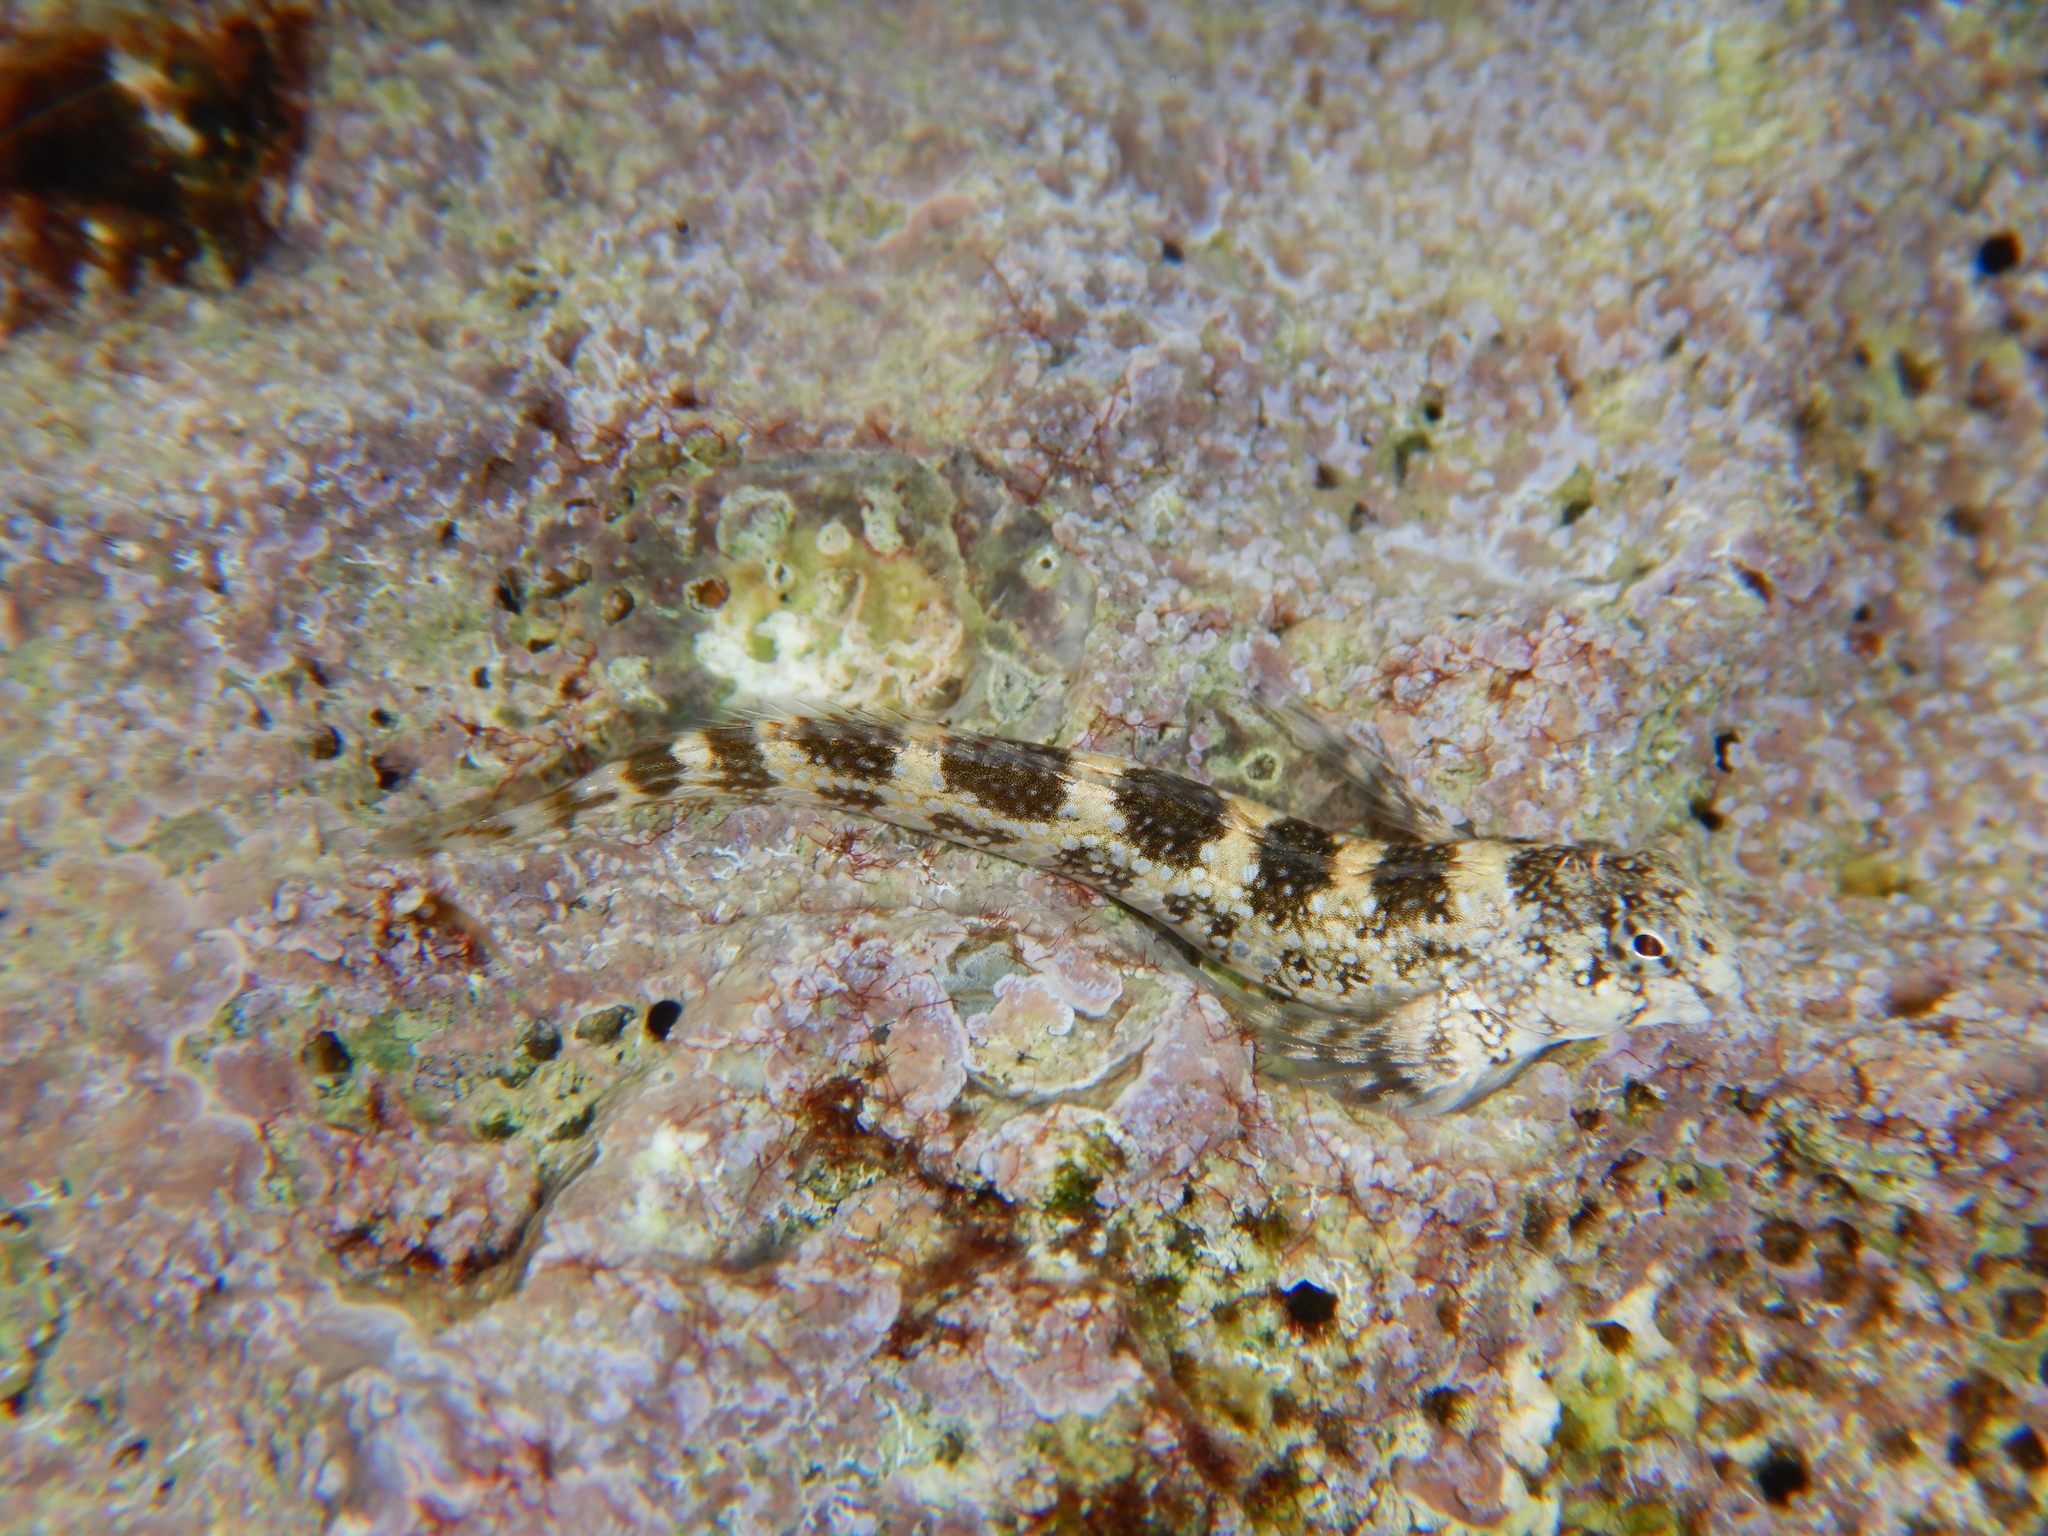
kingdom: Animalia
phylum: Chordata
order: Perciformes
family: Blenniidae
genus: Coryphoblennius
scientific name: Coryphoblennius galerita
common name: Montagu's blenny
